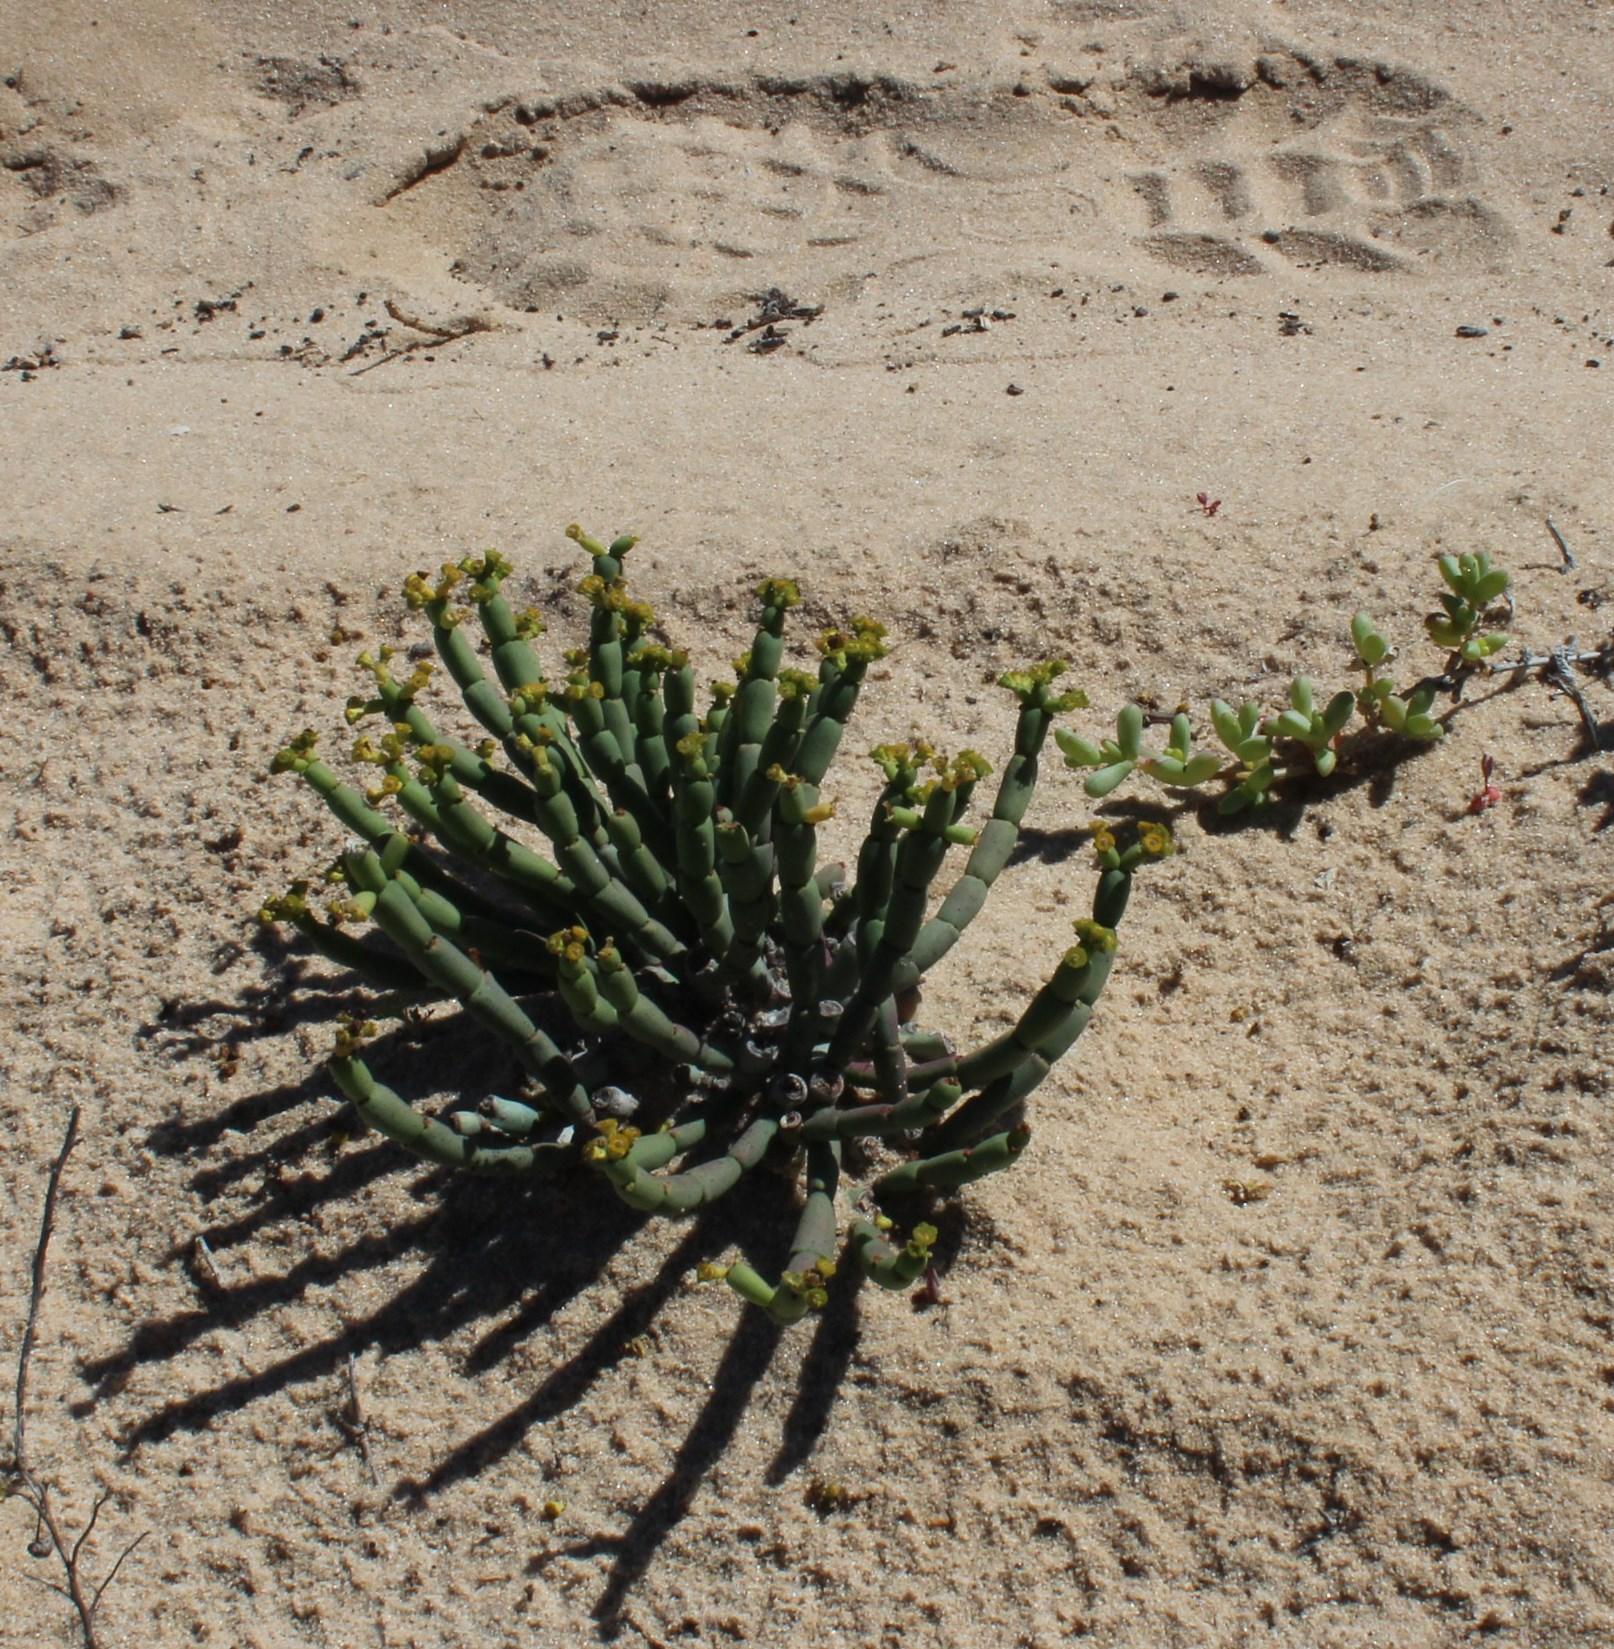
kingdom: Plantae
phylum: Tracheophyta
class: Magnoliopsida
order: Malpighiales
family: Euphorbiaceae
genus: Euphorbia
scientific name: Euphorbia burmanni
